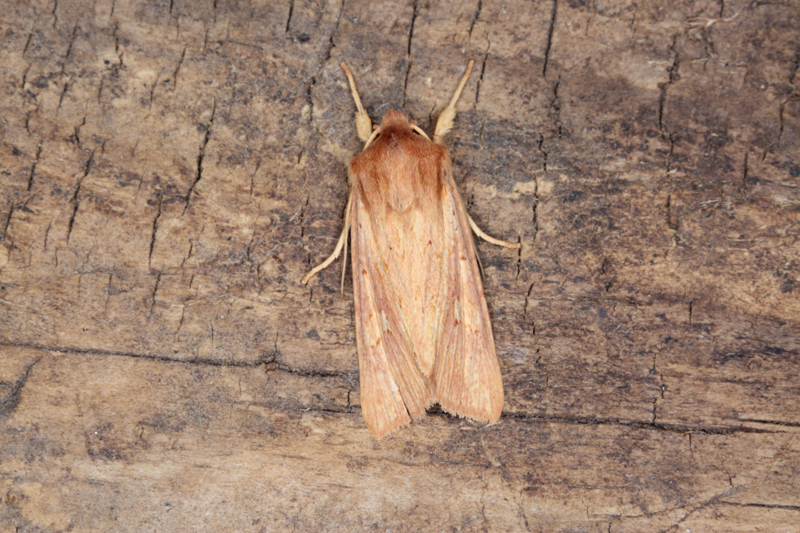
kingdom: Animalia
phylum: Arthropoda
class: Insecta
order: Lepidoptera
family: Noctuidae
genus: Ichneutica
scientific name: Ichneutica seducta
